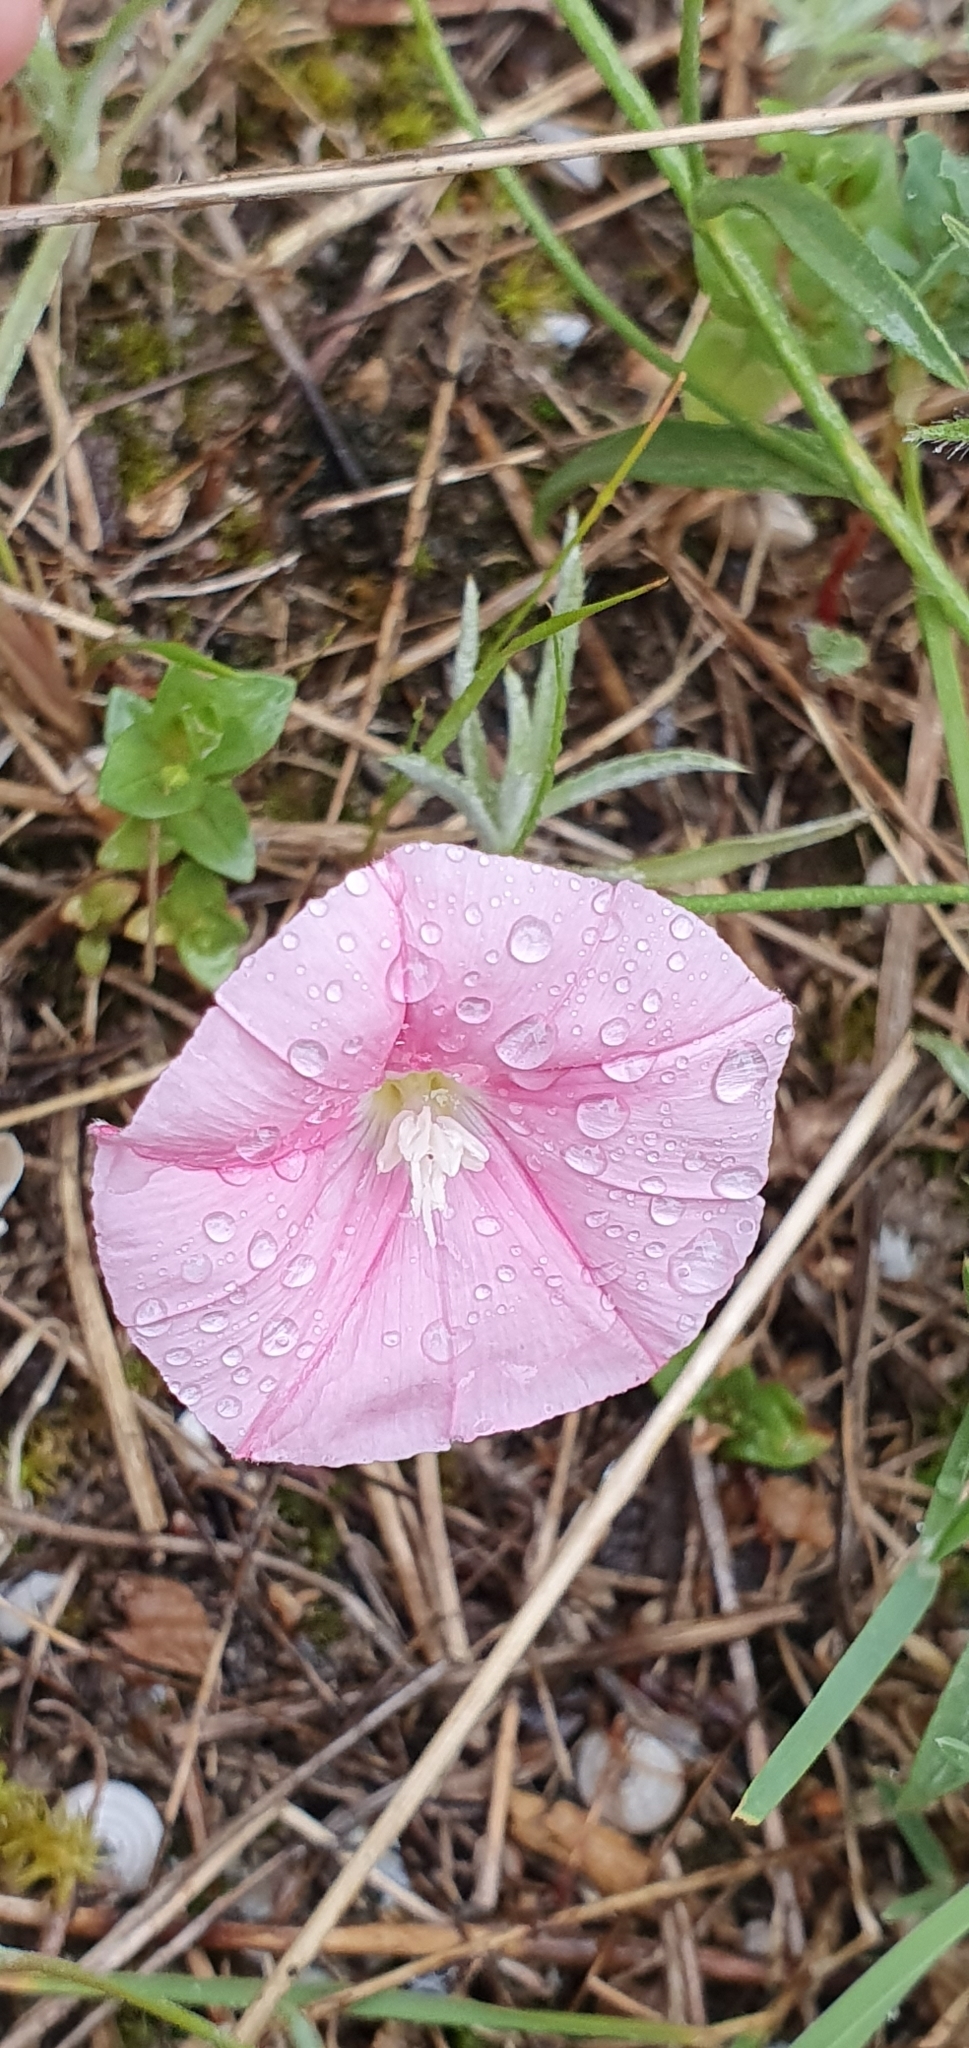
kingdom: Plantae
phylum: Tracheophyta
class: Magnoliopsida
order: Solanales
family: Convolvulaceae
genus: Convolvulus
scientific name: Convolvulus cantabrica
